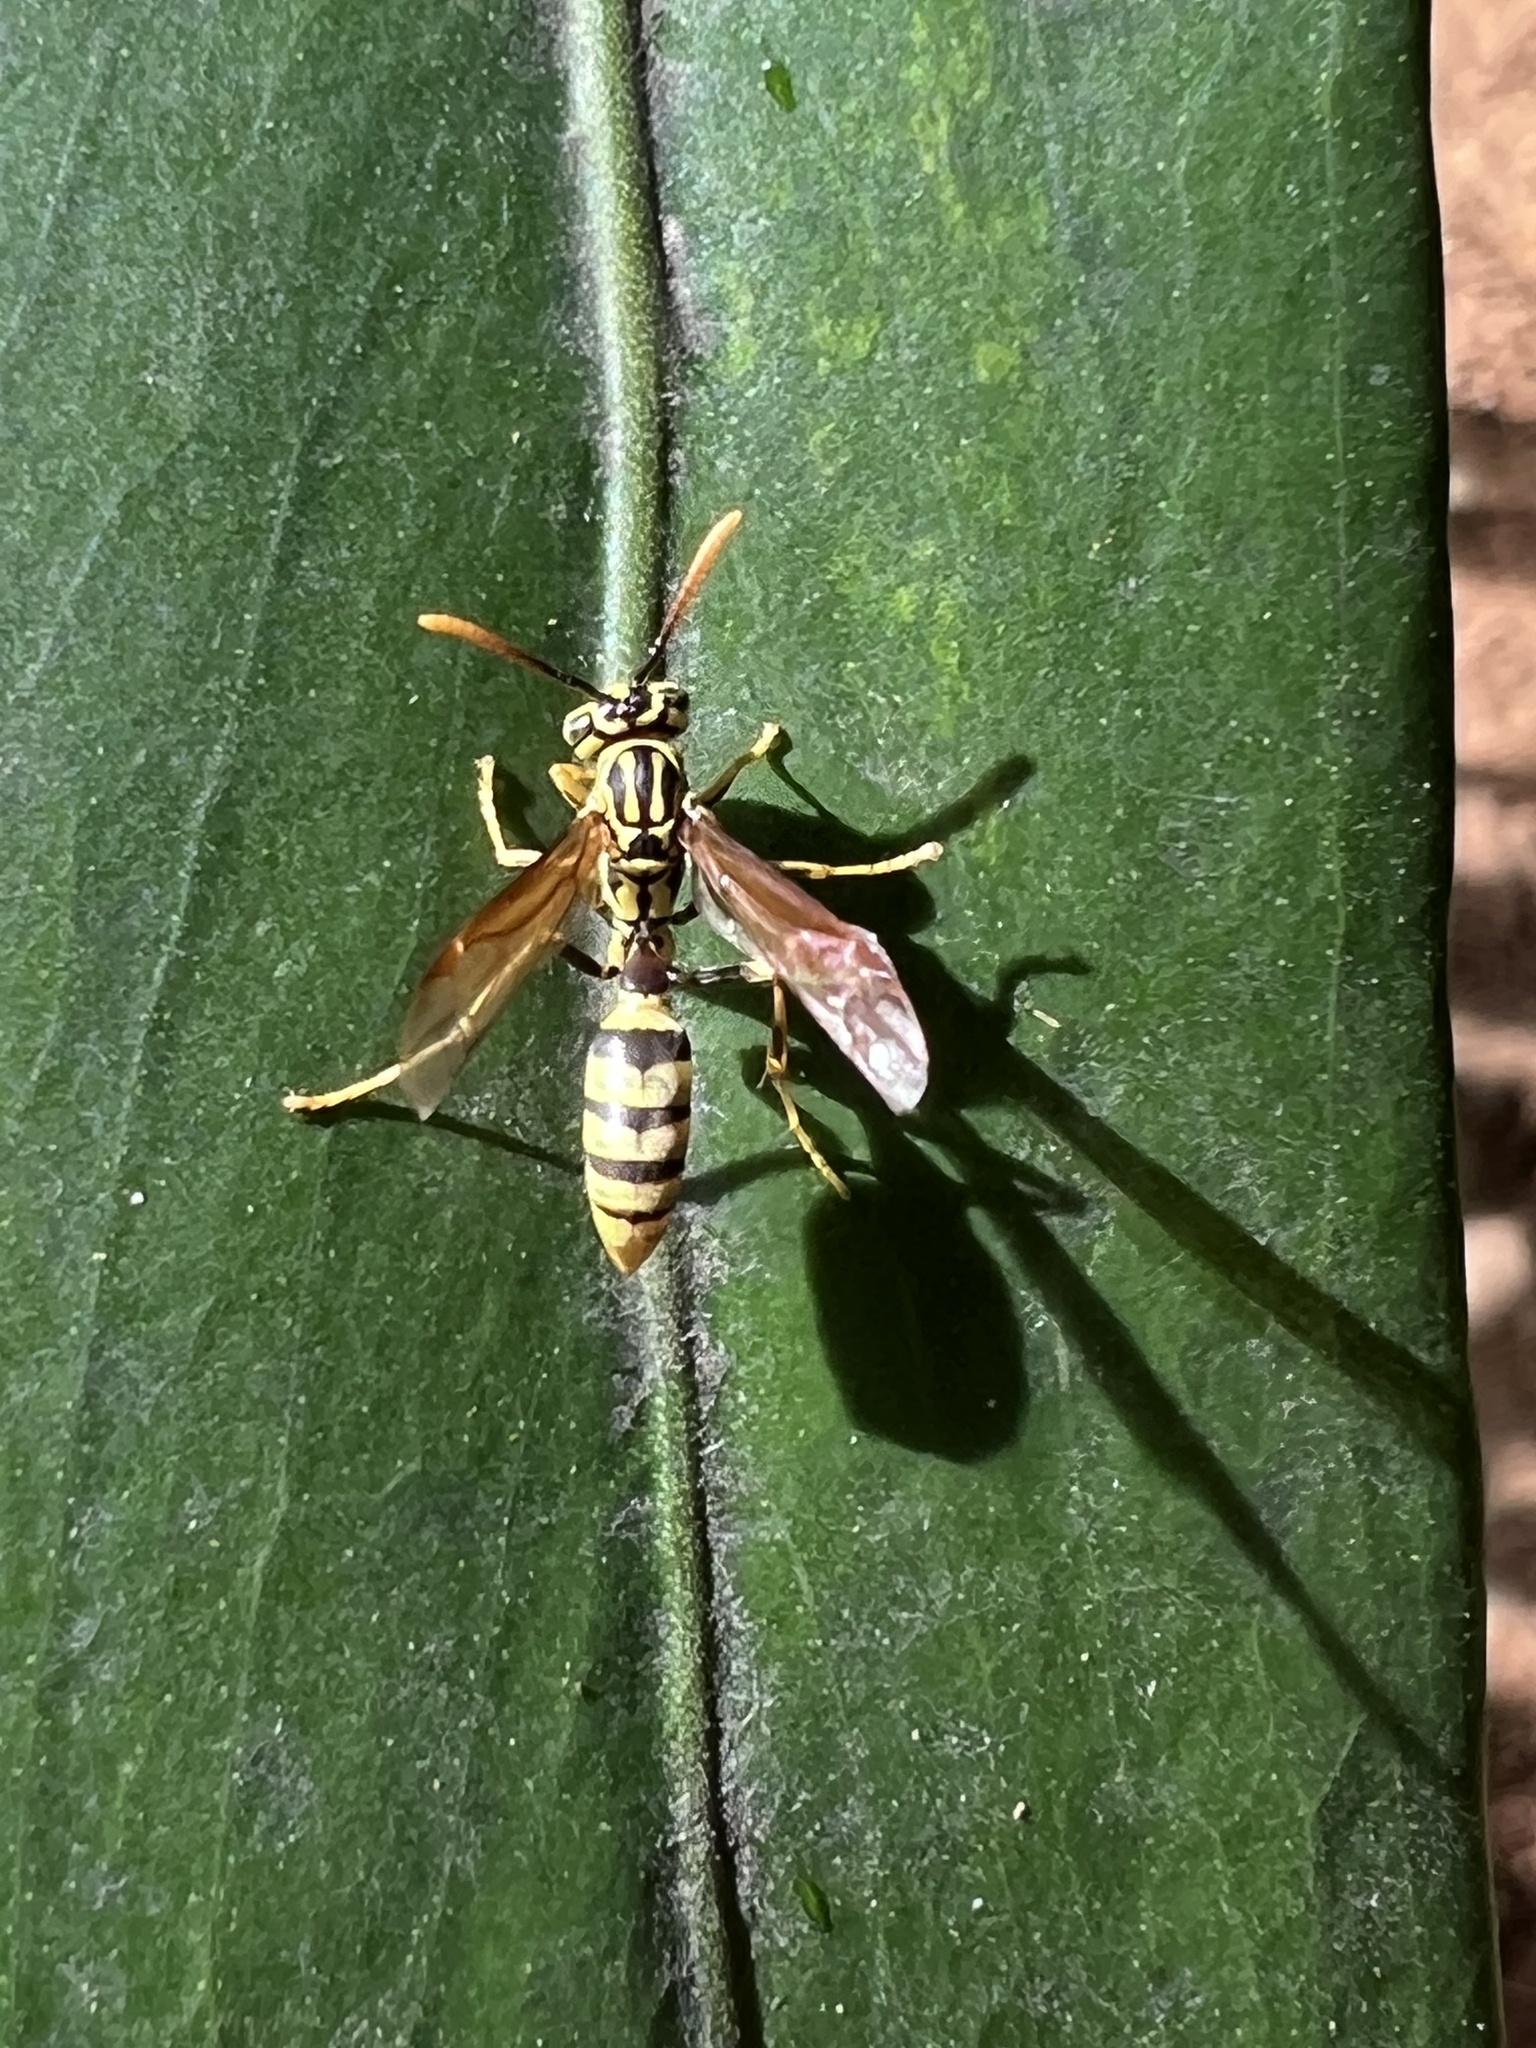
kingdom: Animalia
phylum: Arthropoda
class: Insecta
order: Hymenoptera
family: Vespidae
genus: Agelaia
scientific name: Agelaia areata
